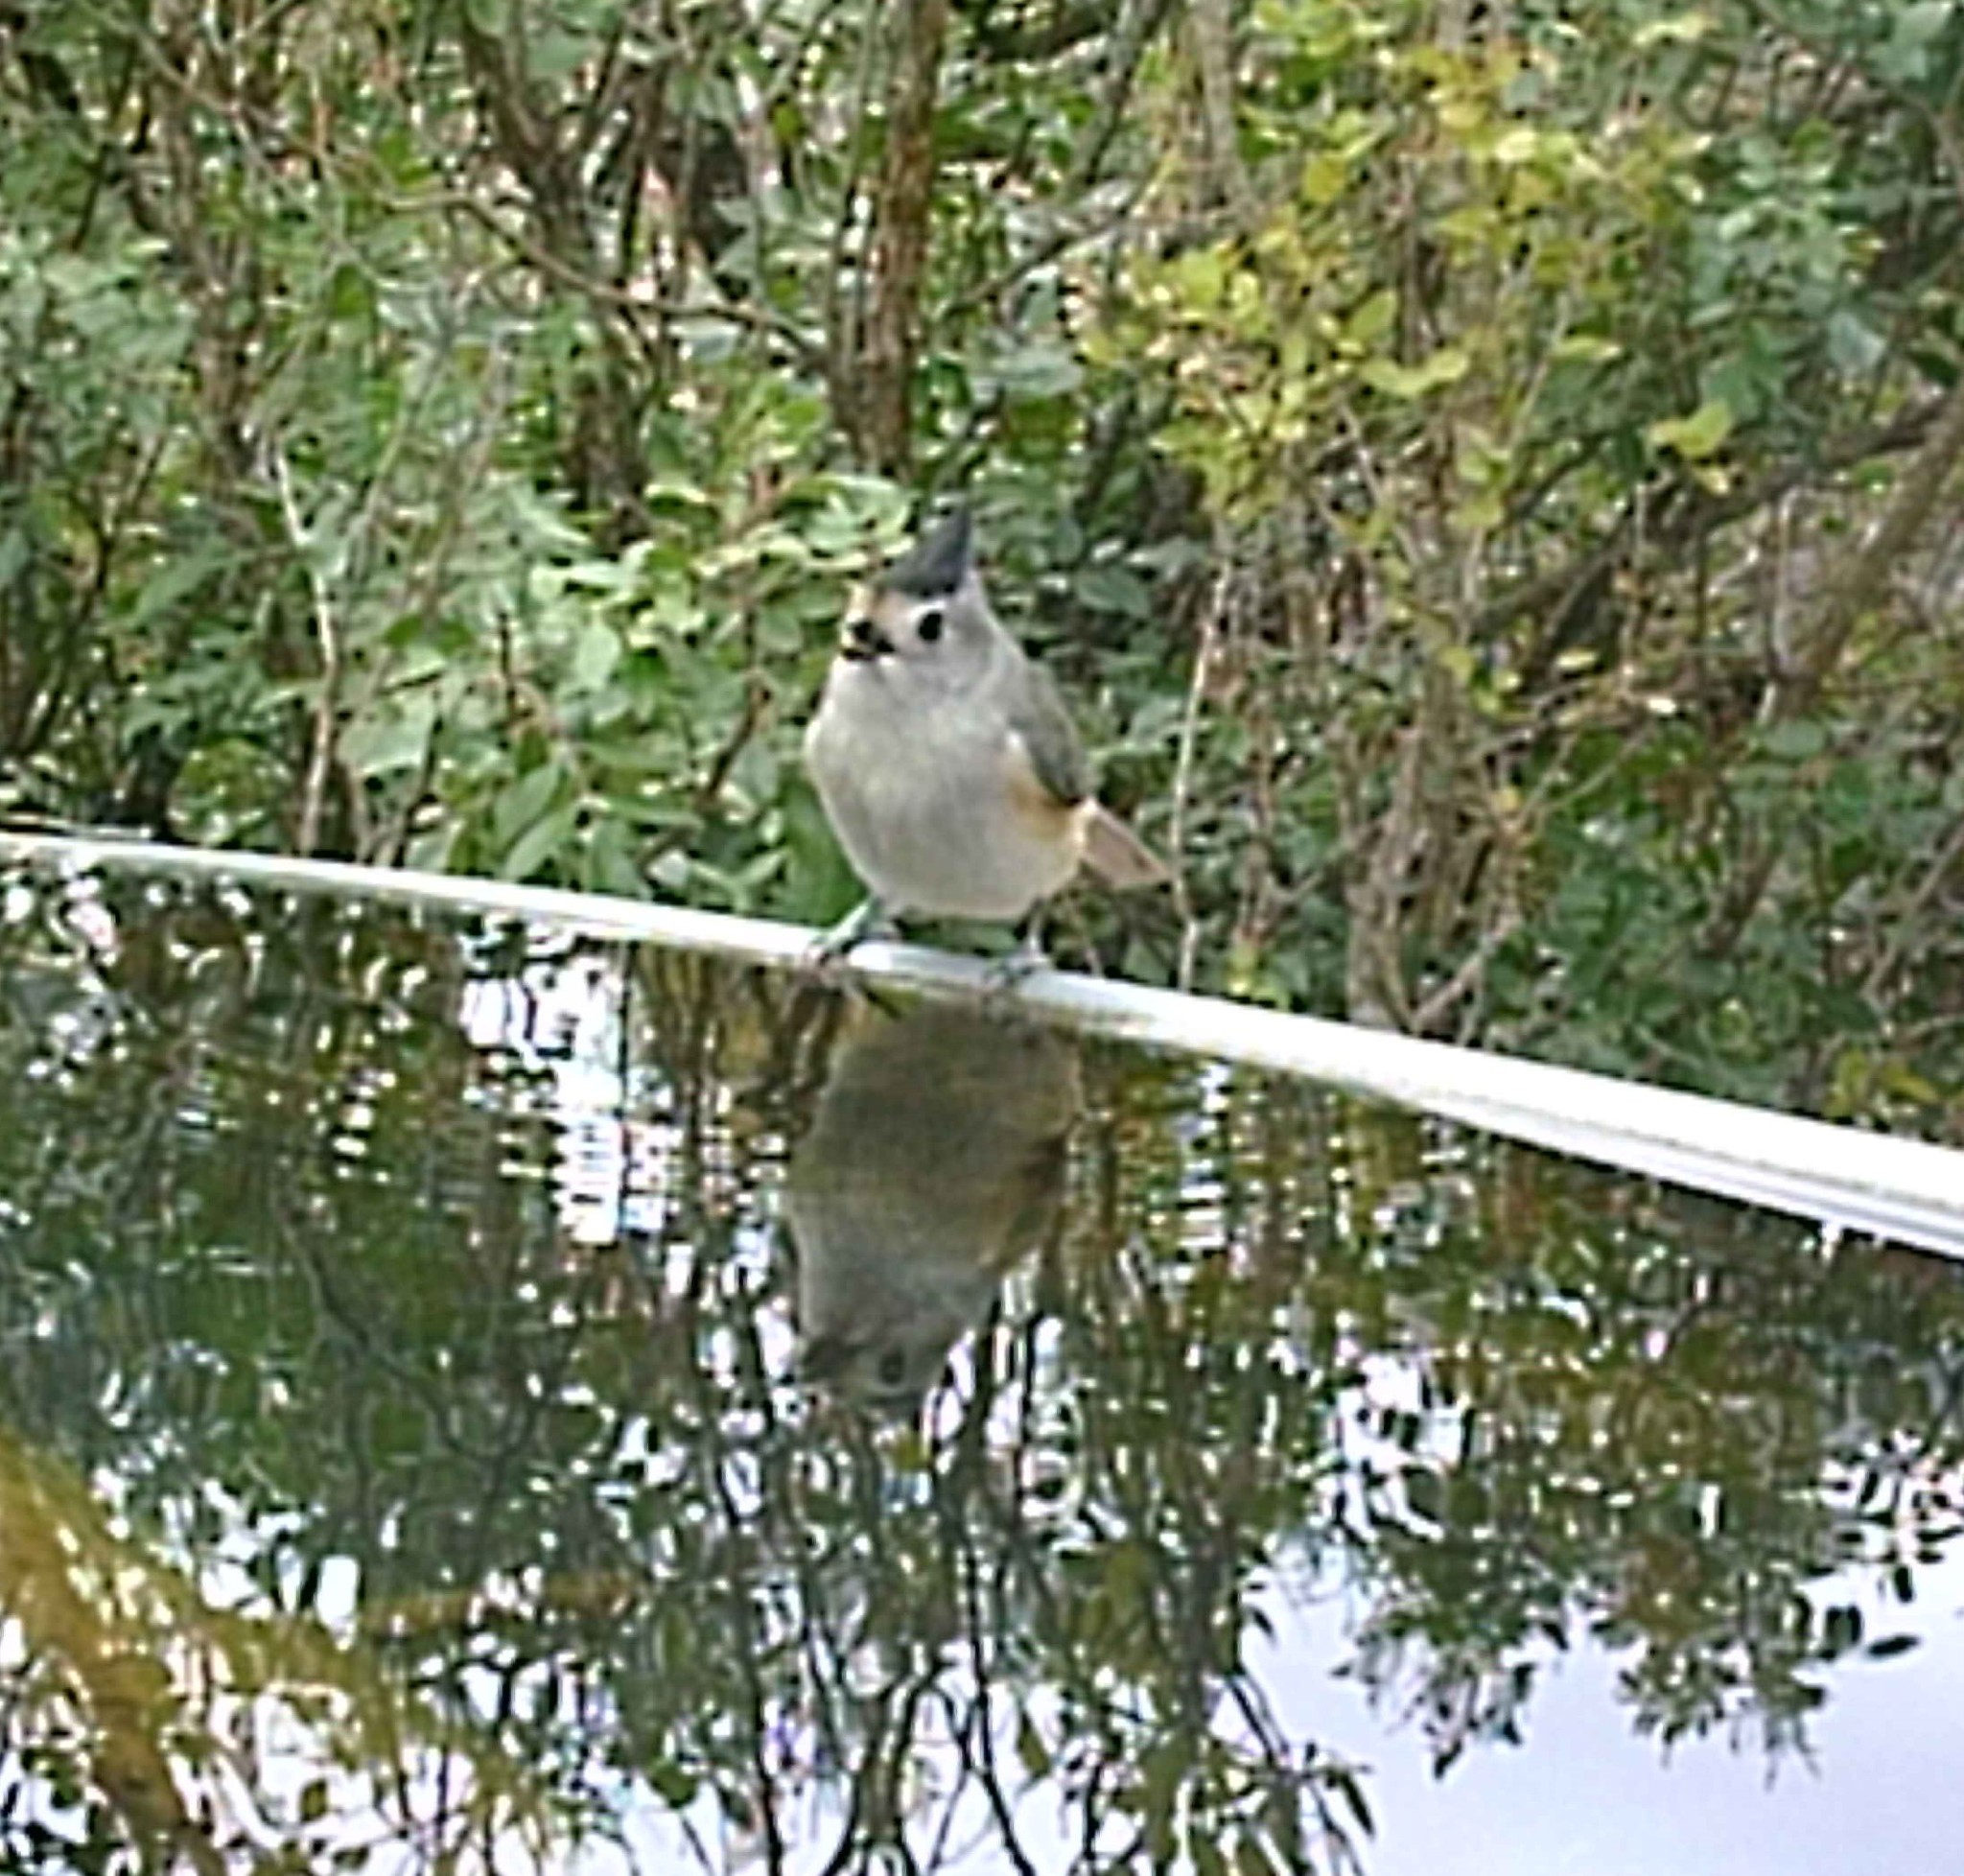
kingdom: Animalia
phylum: Chordata
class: Aves
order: Passeriformes
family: Paridae
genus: Baeolophus
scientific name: Baeolophus atricristatus
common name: Black-crested titmouse
